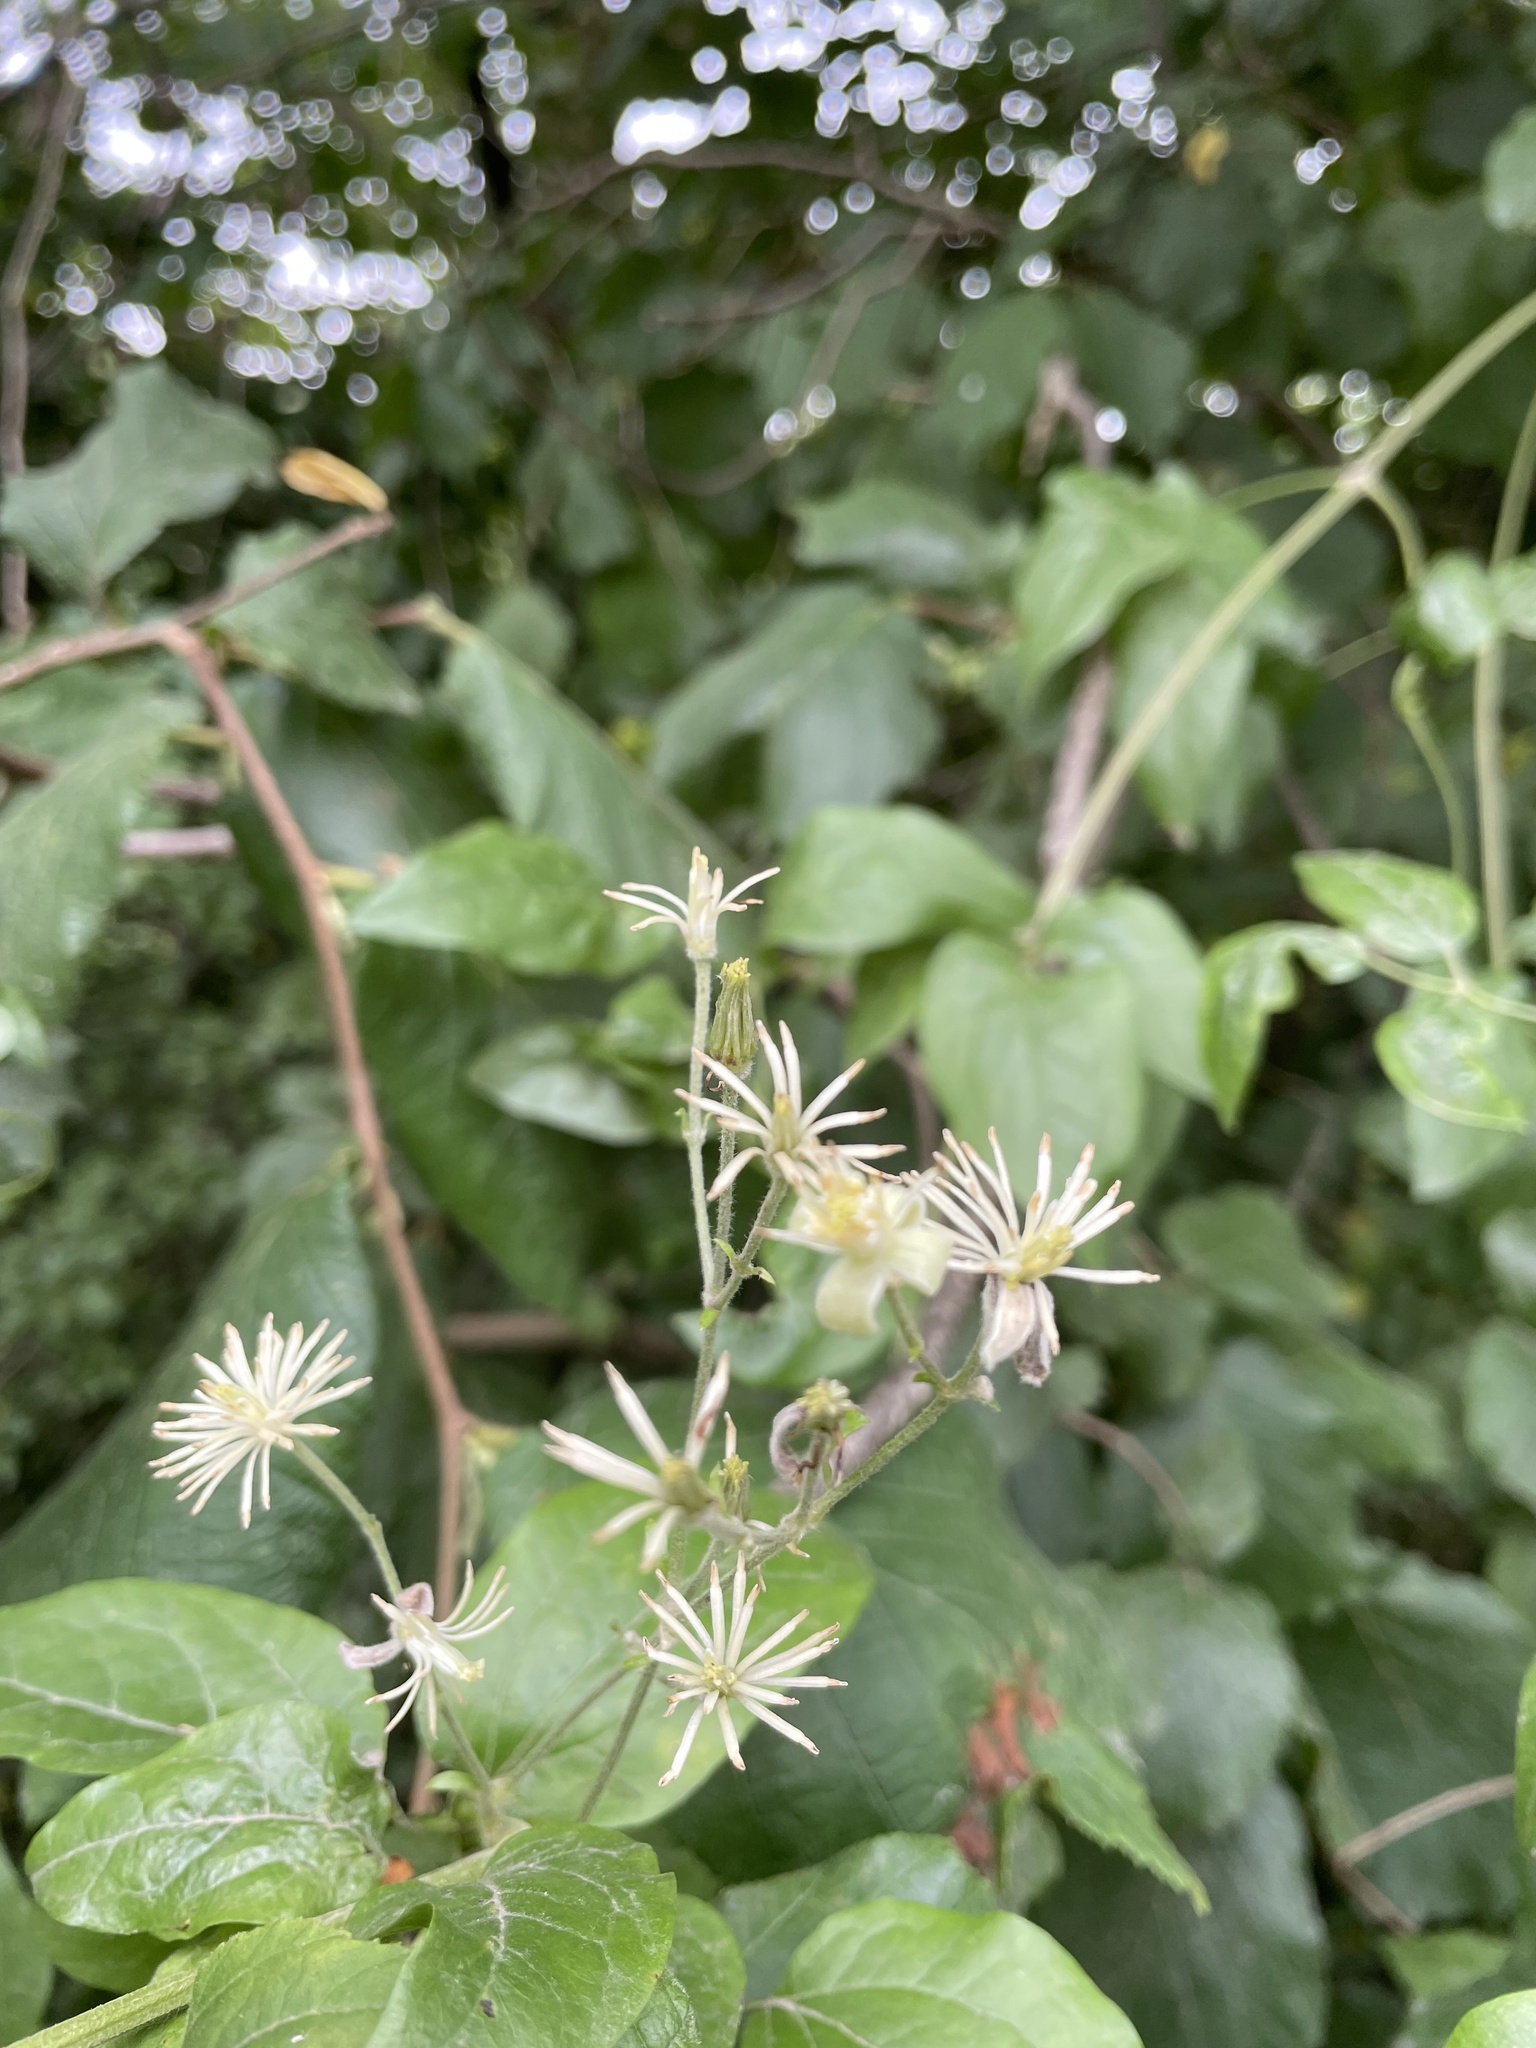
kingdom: Plantae
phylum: Tracheophyta
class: Magnoliopsida
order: Ranunculales
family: Ranunculaceae
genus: Clematis
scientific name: Clematis vitalba
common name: Evergreen clematis
